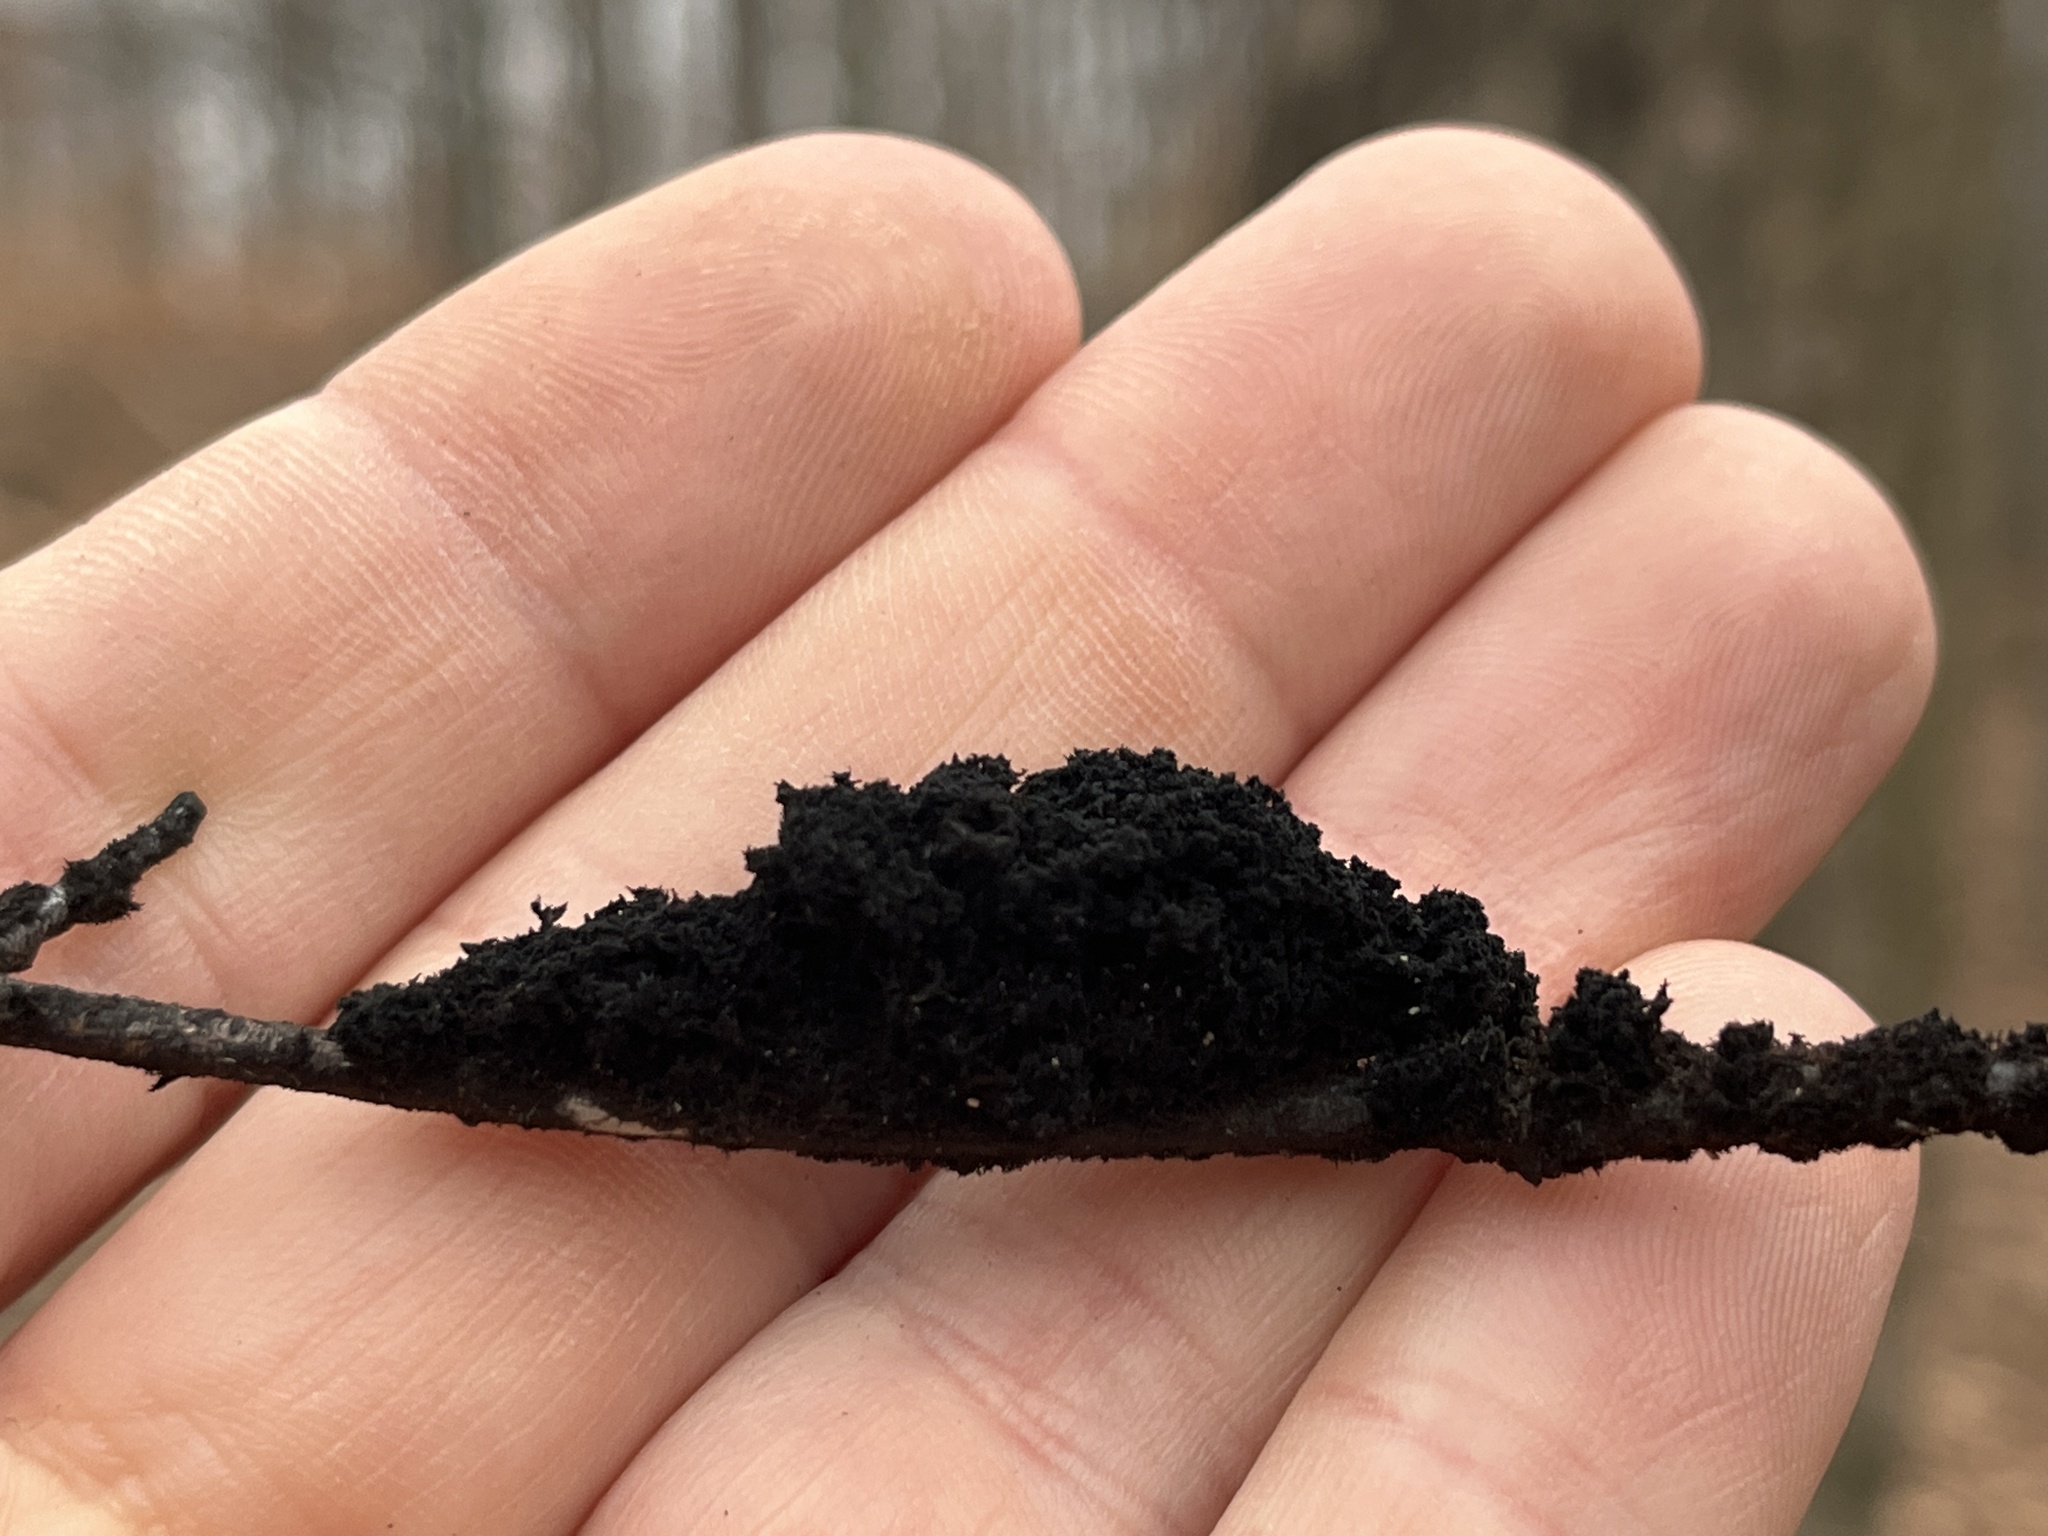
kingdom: Fungi
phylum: Ascomycota
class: Dothideomycetes
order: Capnodiales
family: Capnodiaceae
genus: Scorias
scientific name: Scorias spongiosa
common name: Black sooty mold
